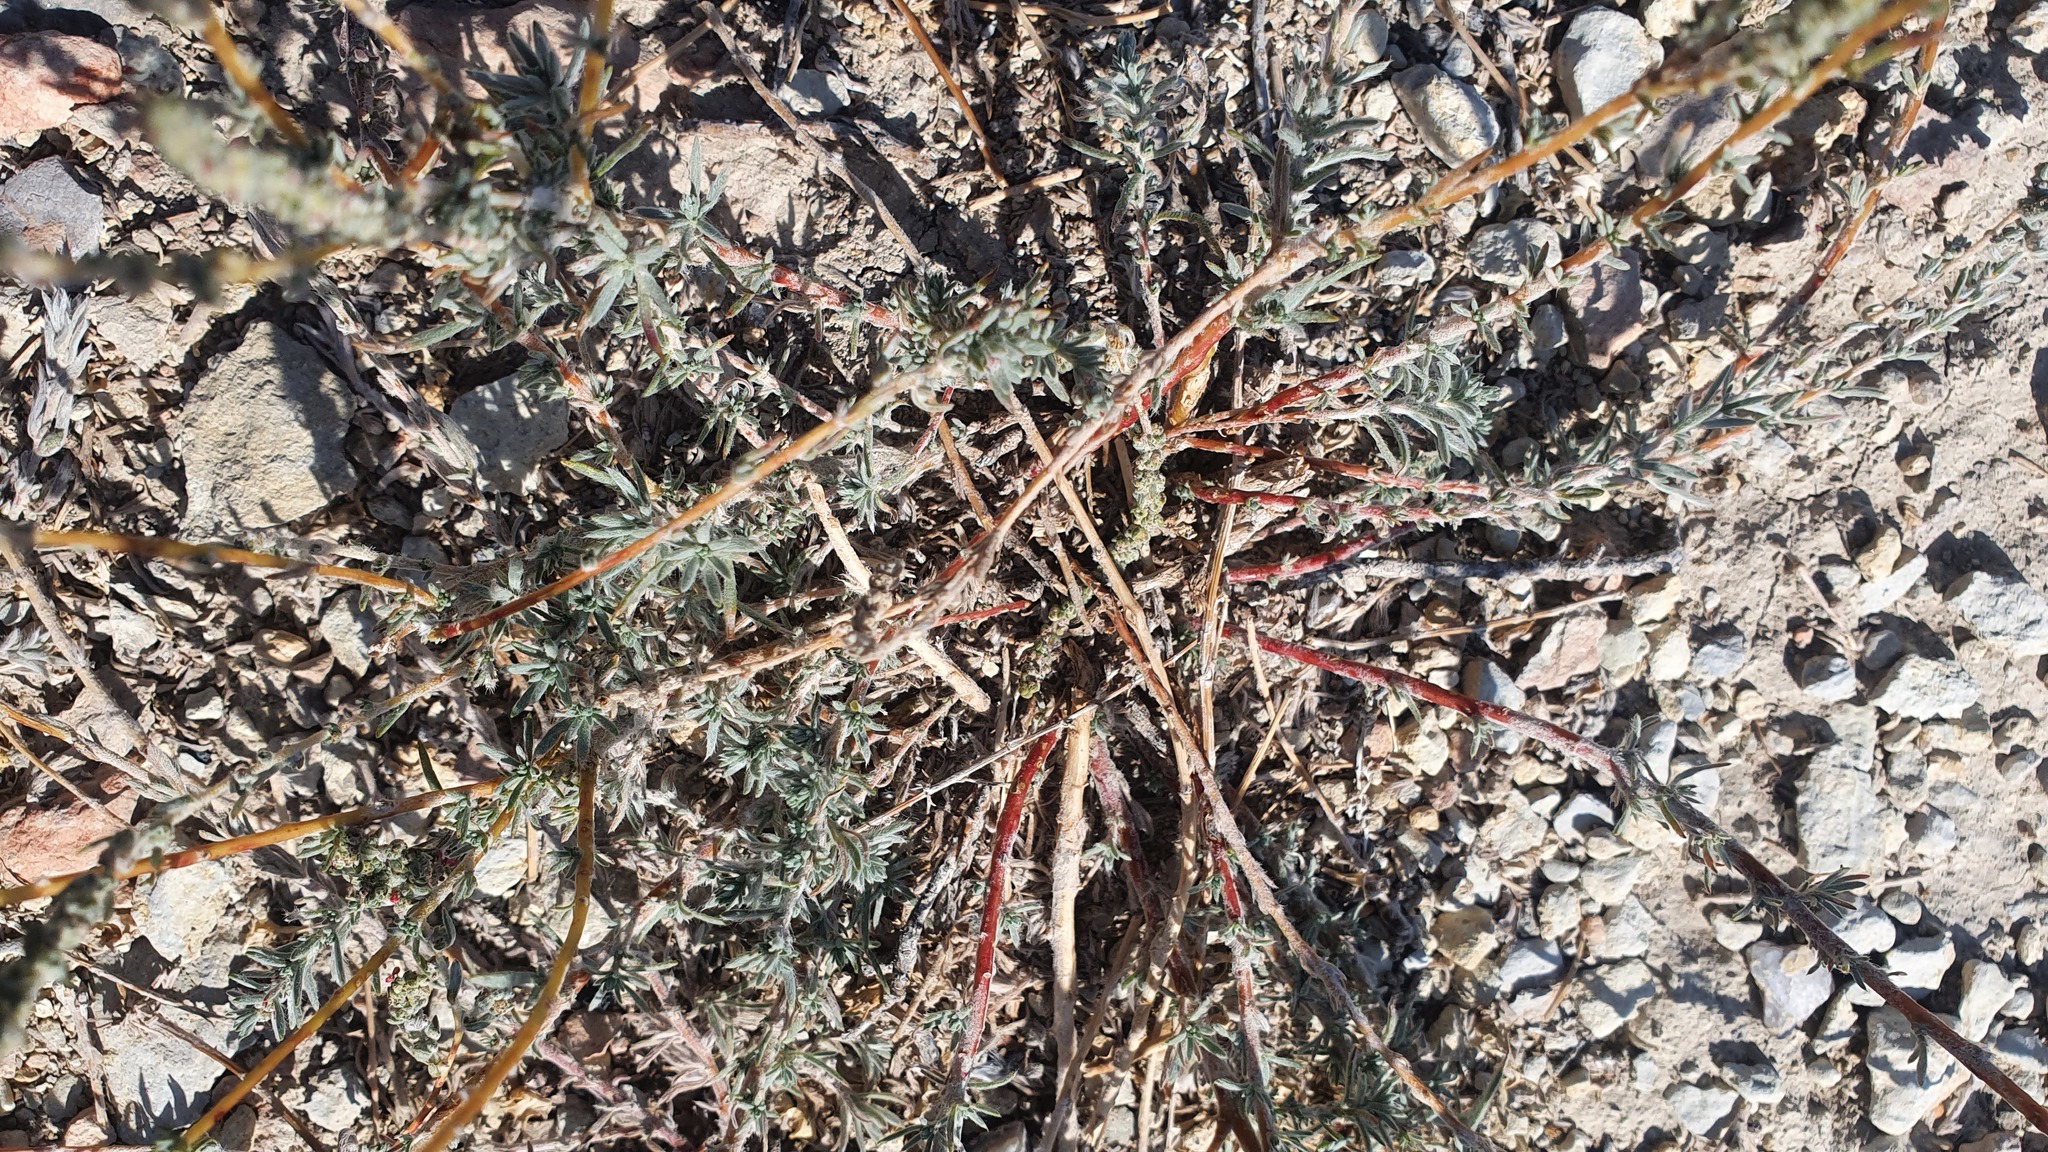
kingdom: Plantae
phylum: Tracheophyta
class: Magnoliopsida
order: Caryophyllales
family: Amaranthaceae
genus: Bassia
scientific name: Bassia prostrata
